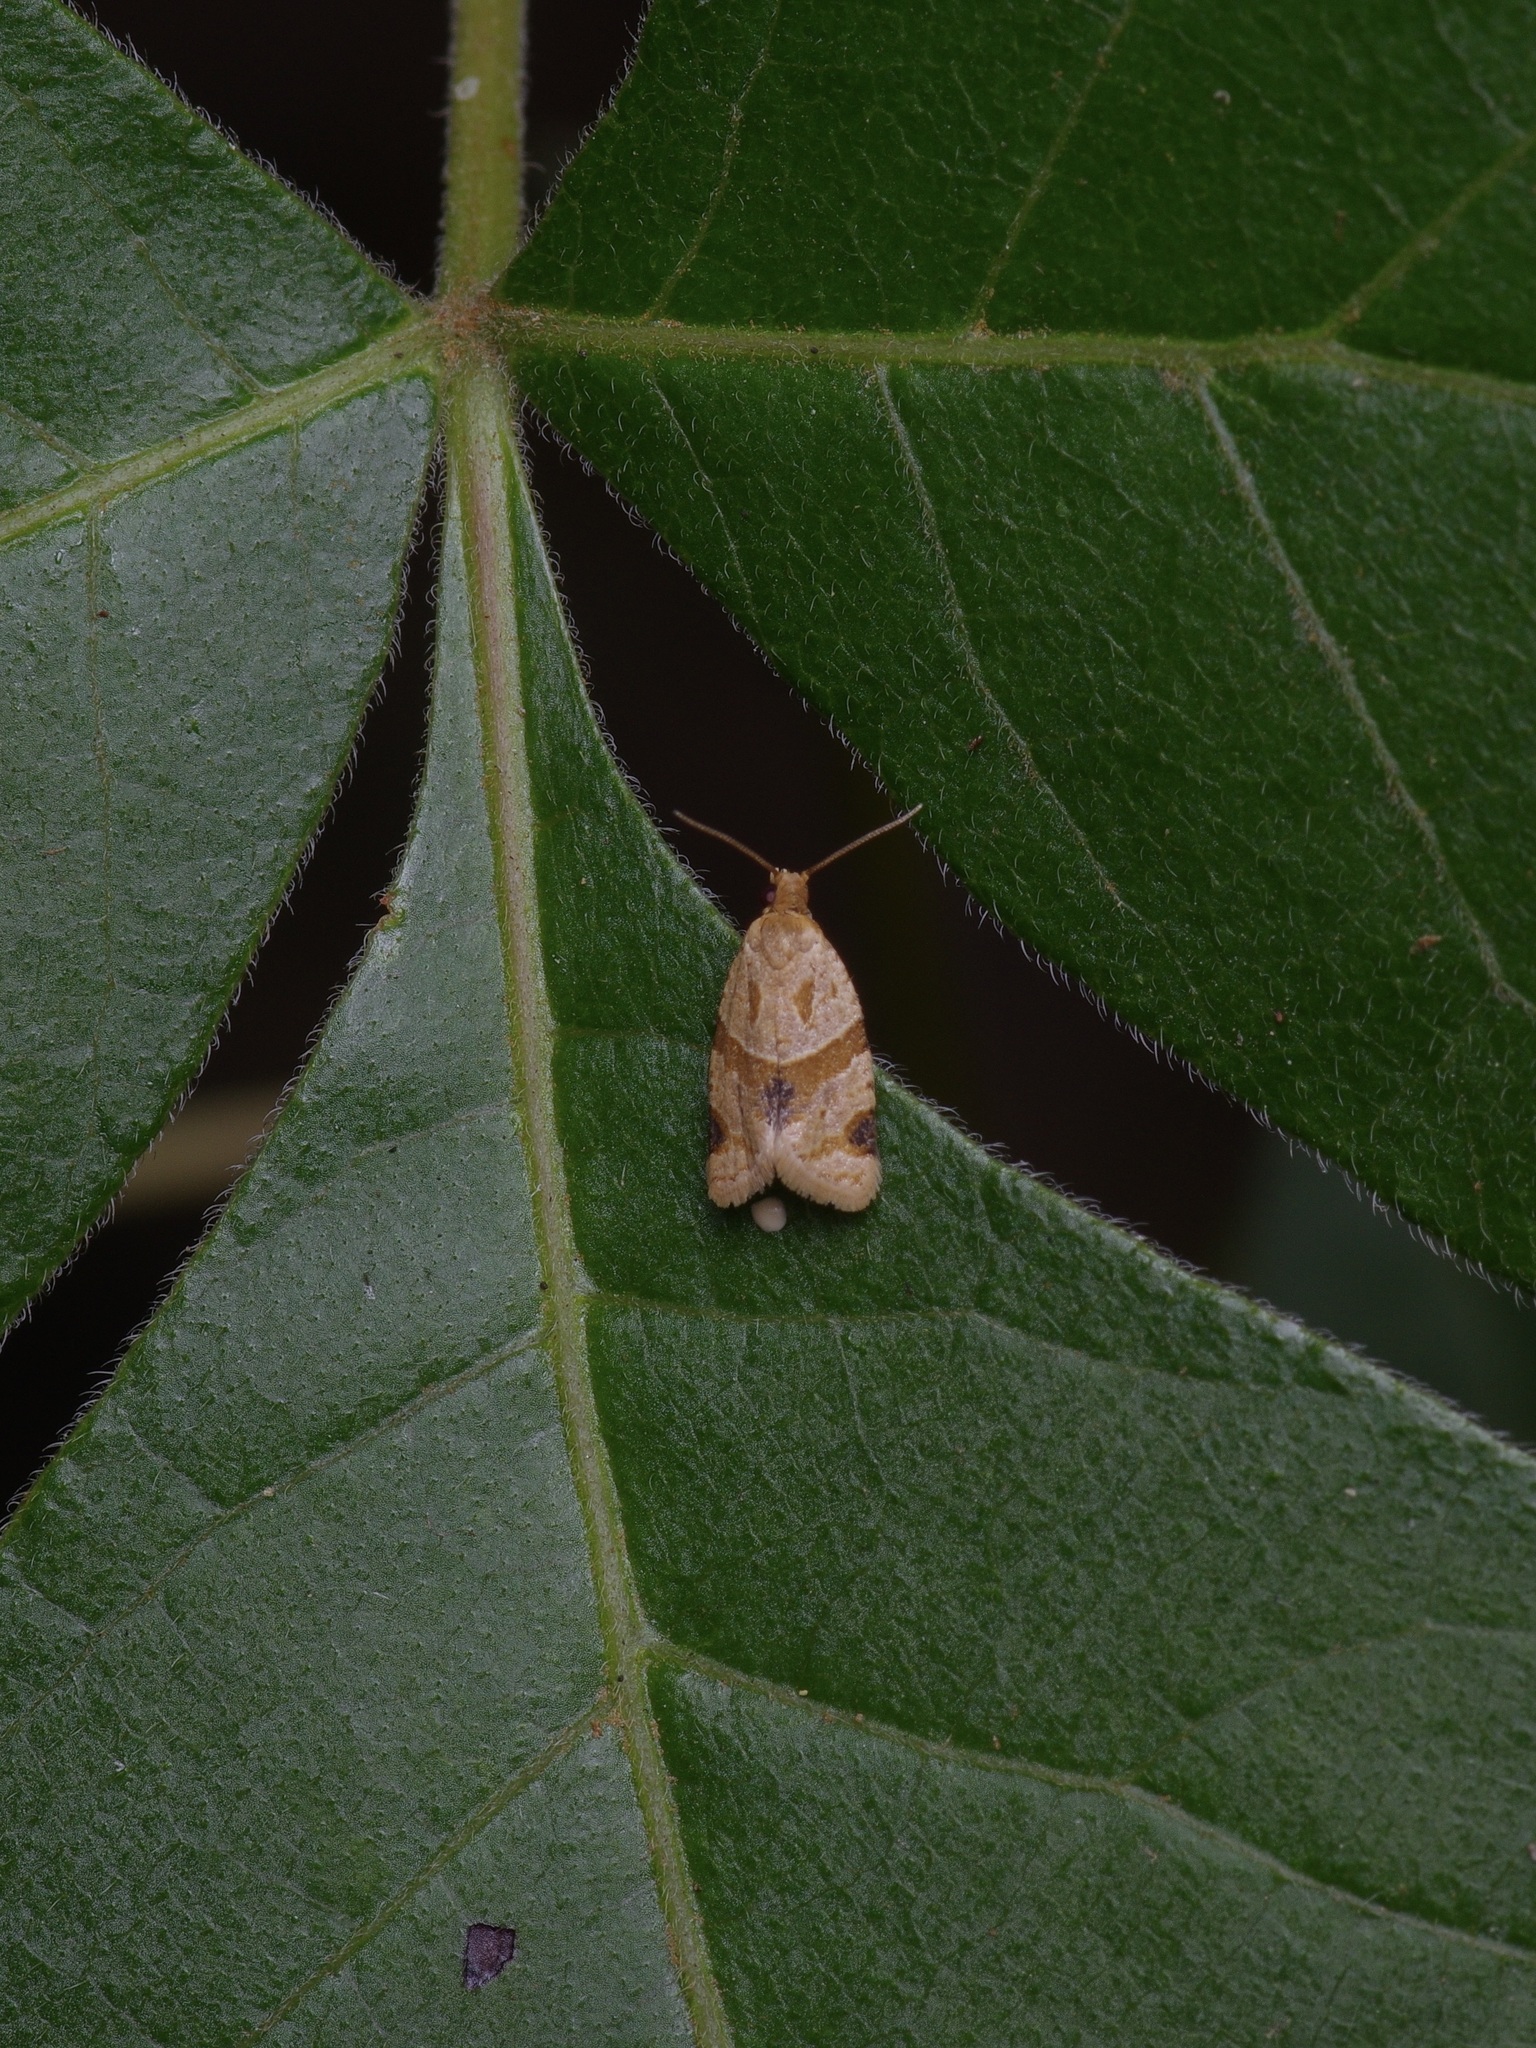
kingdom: Animalia
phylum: Arthropoda
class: Insecta
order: Lepidoptera
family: Tortricidae
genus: Clepsis
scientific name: Clepsis peritana
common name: Garden tortrix
